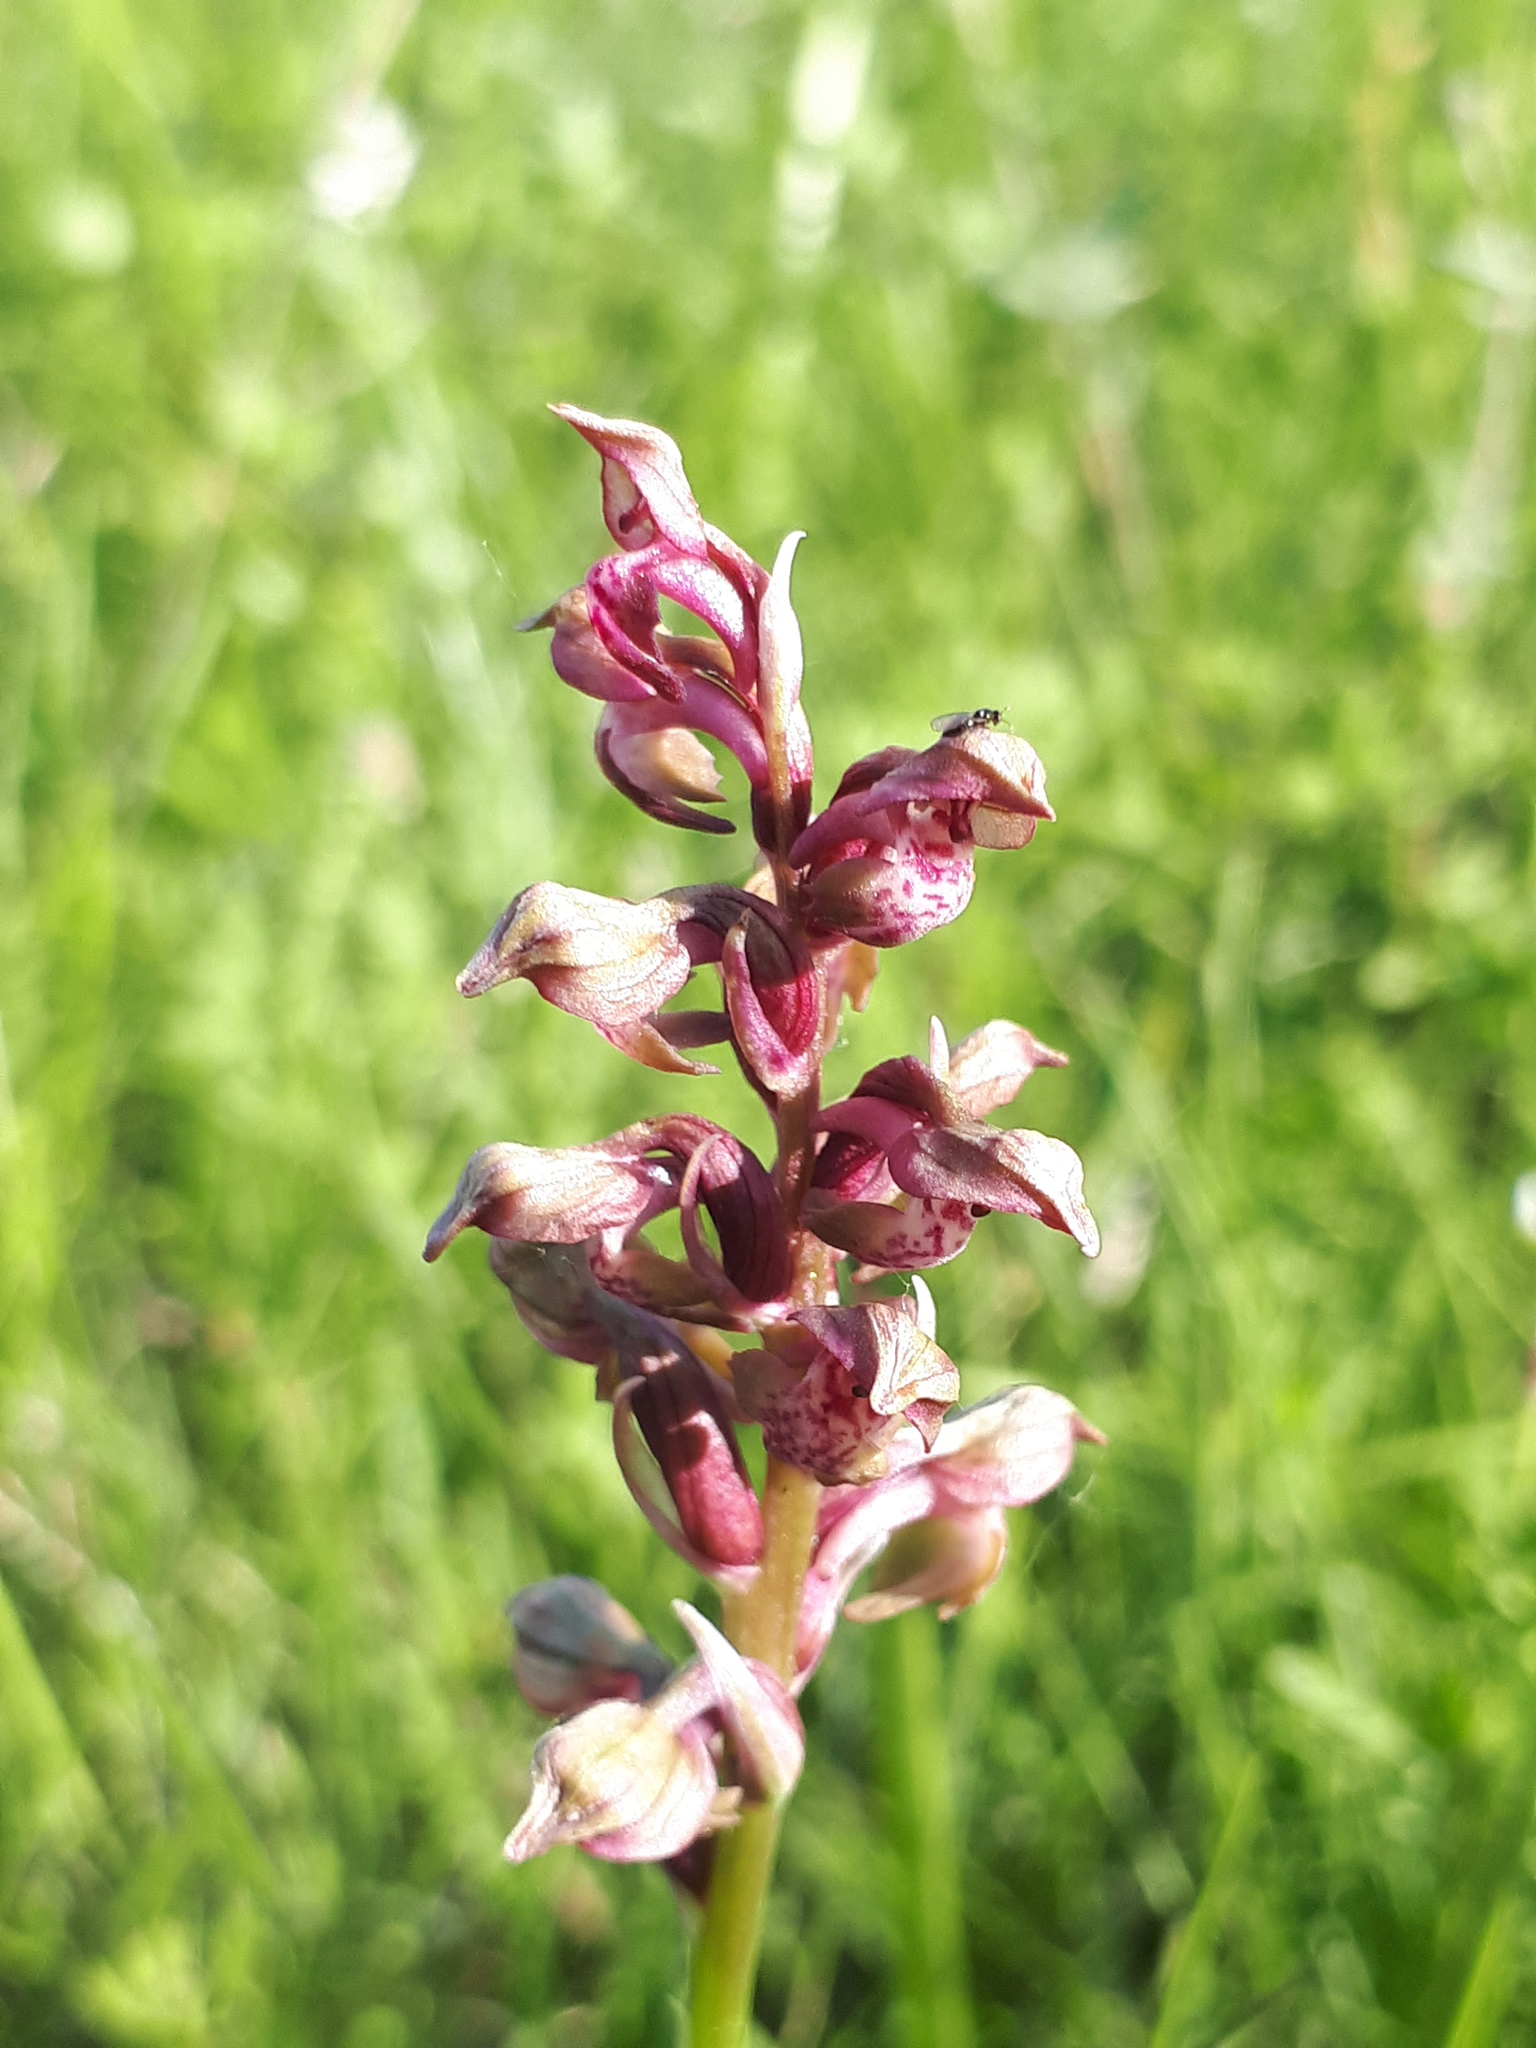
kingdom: Plantae
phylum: Tracheophyta
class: Liliopsida
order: Asparagales
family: Orchidaceae
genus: Anacamptis
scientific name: Anacamptis coriophora
